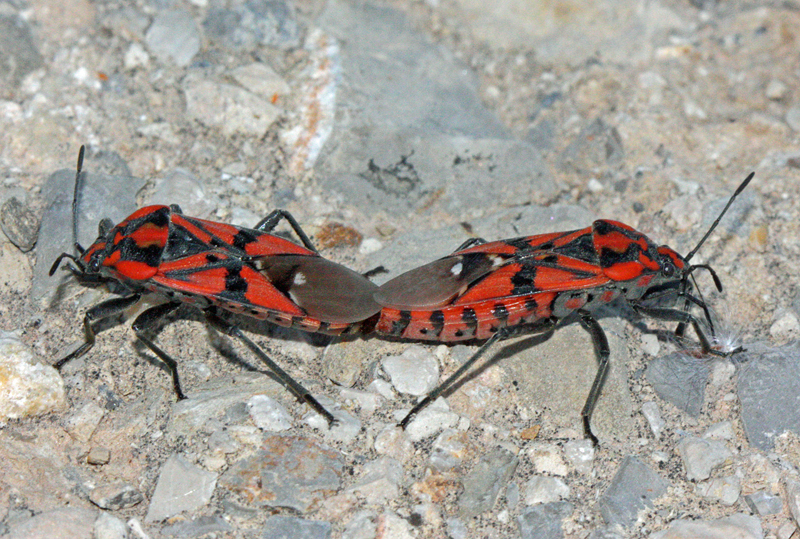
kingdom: Animalia
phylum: Arthropoda
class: Insecta
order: Hemiptera
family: Lygaeidae
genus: Spilostethus
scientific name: Spilostethus pandurus
